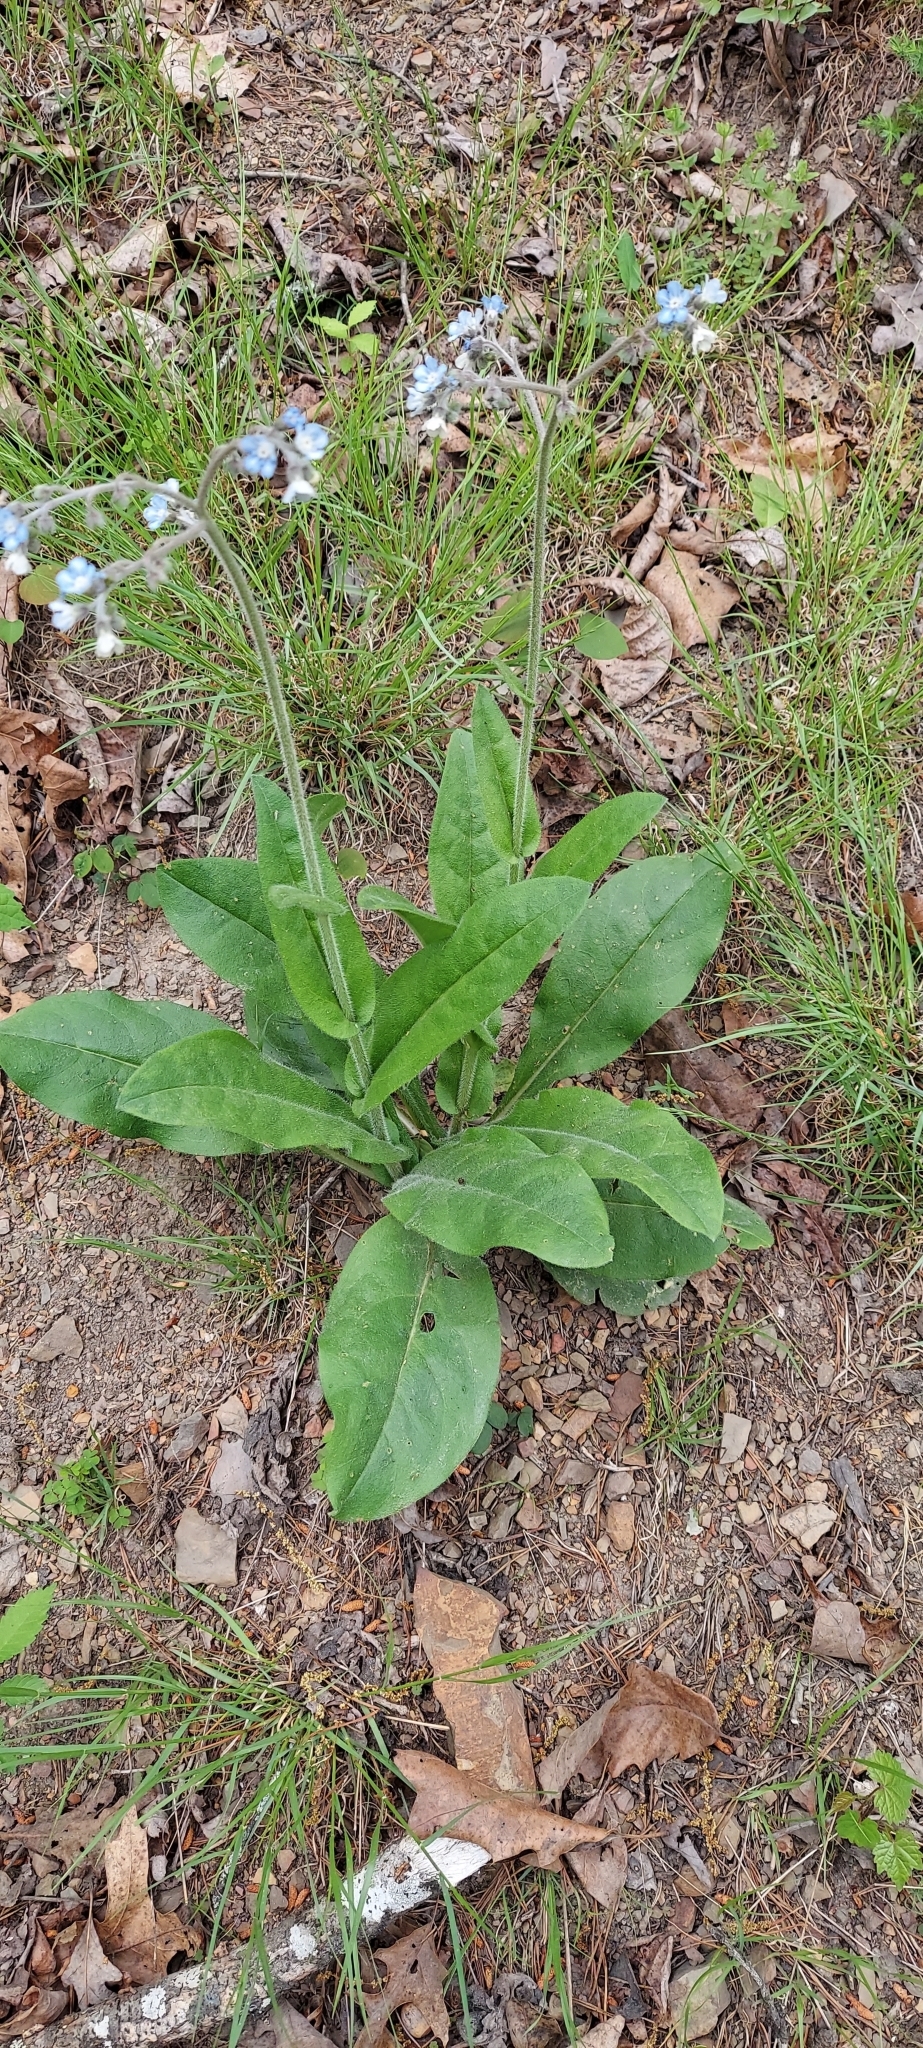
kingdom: Plantae
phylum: Tracheophyta
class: Magnoliopsida
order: Boraginales
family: Boraginaceae
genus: Andersonglossum
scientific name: Andersonglossum virginianum
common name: Wild comfrey
